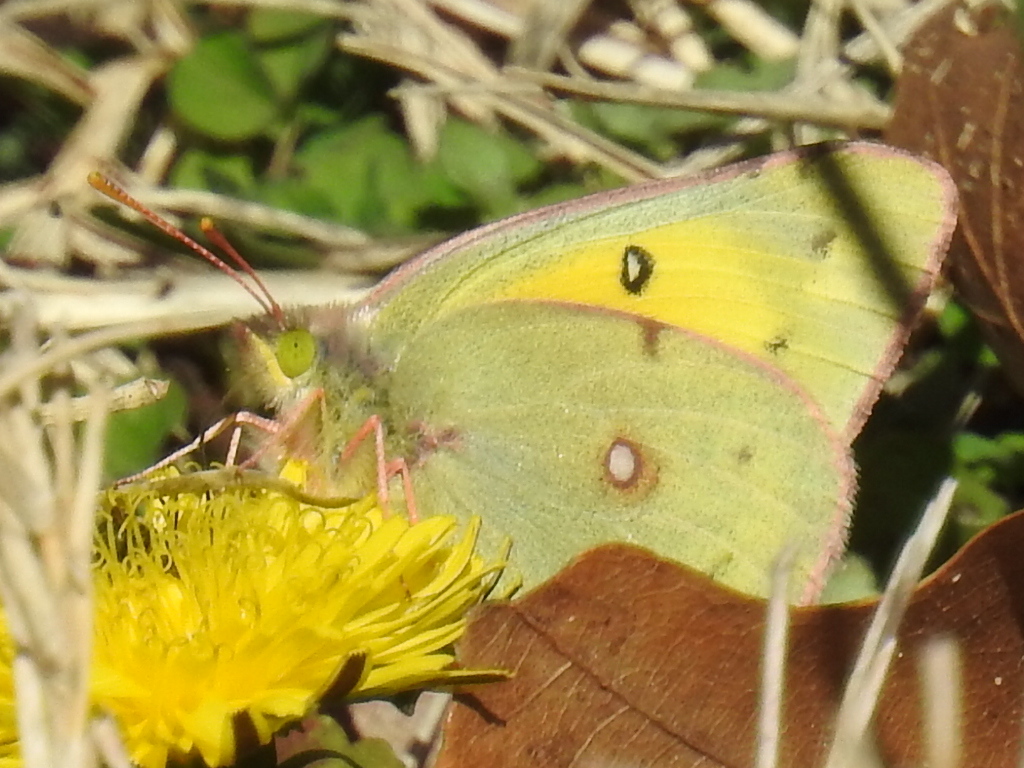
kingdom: Animalia
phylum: Arthropoda
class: Insecta
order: Lepidoptera
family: Pieridae
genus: Colias
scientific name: Colias eurytheme
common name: Alfalfa butterfly
